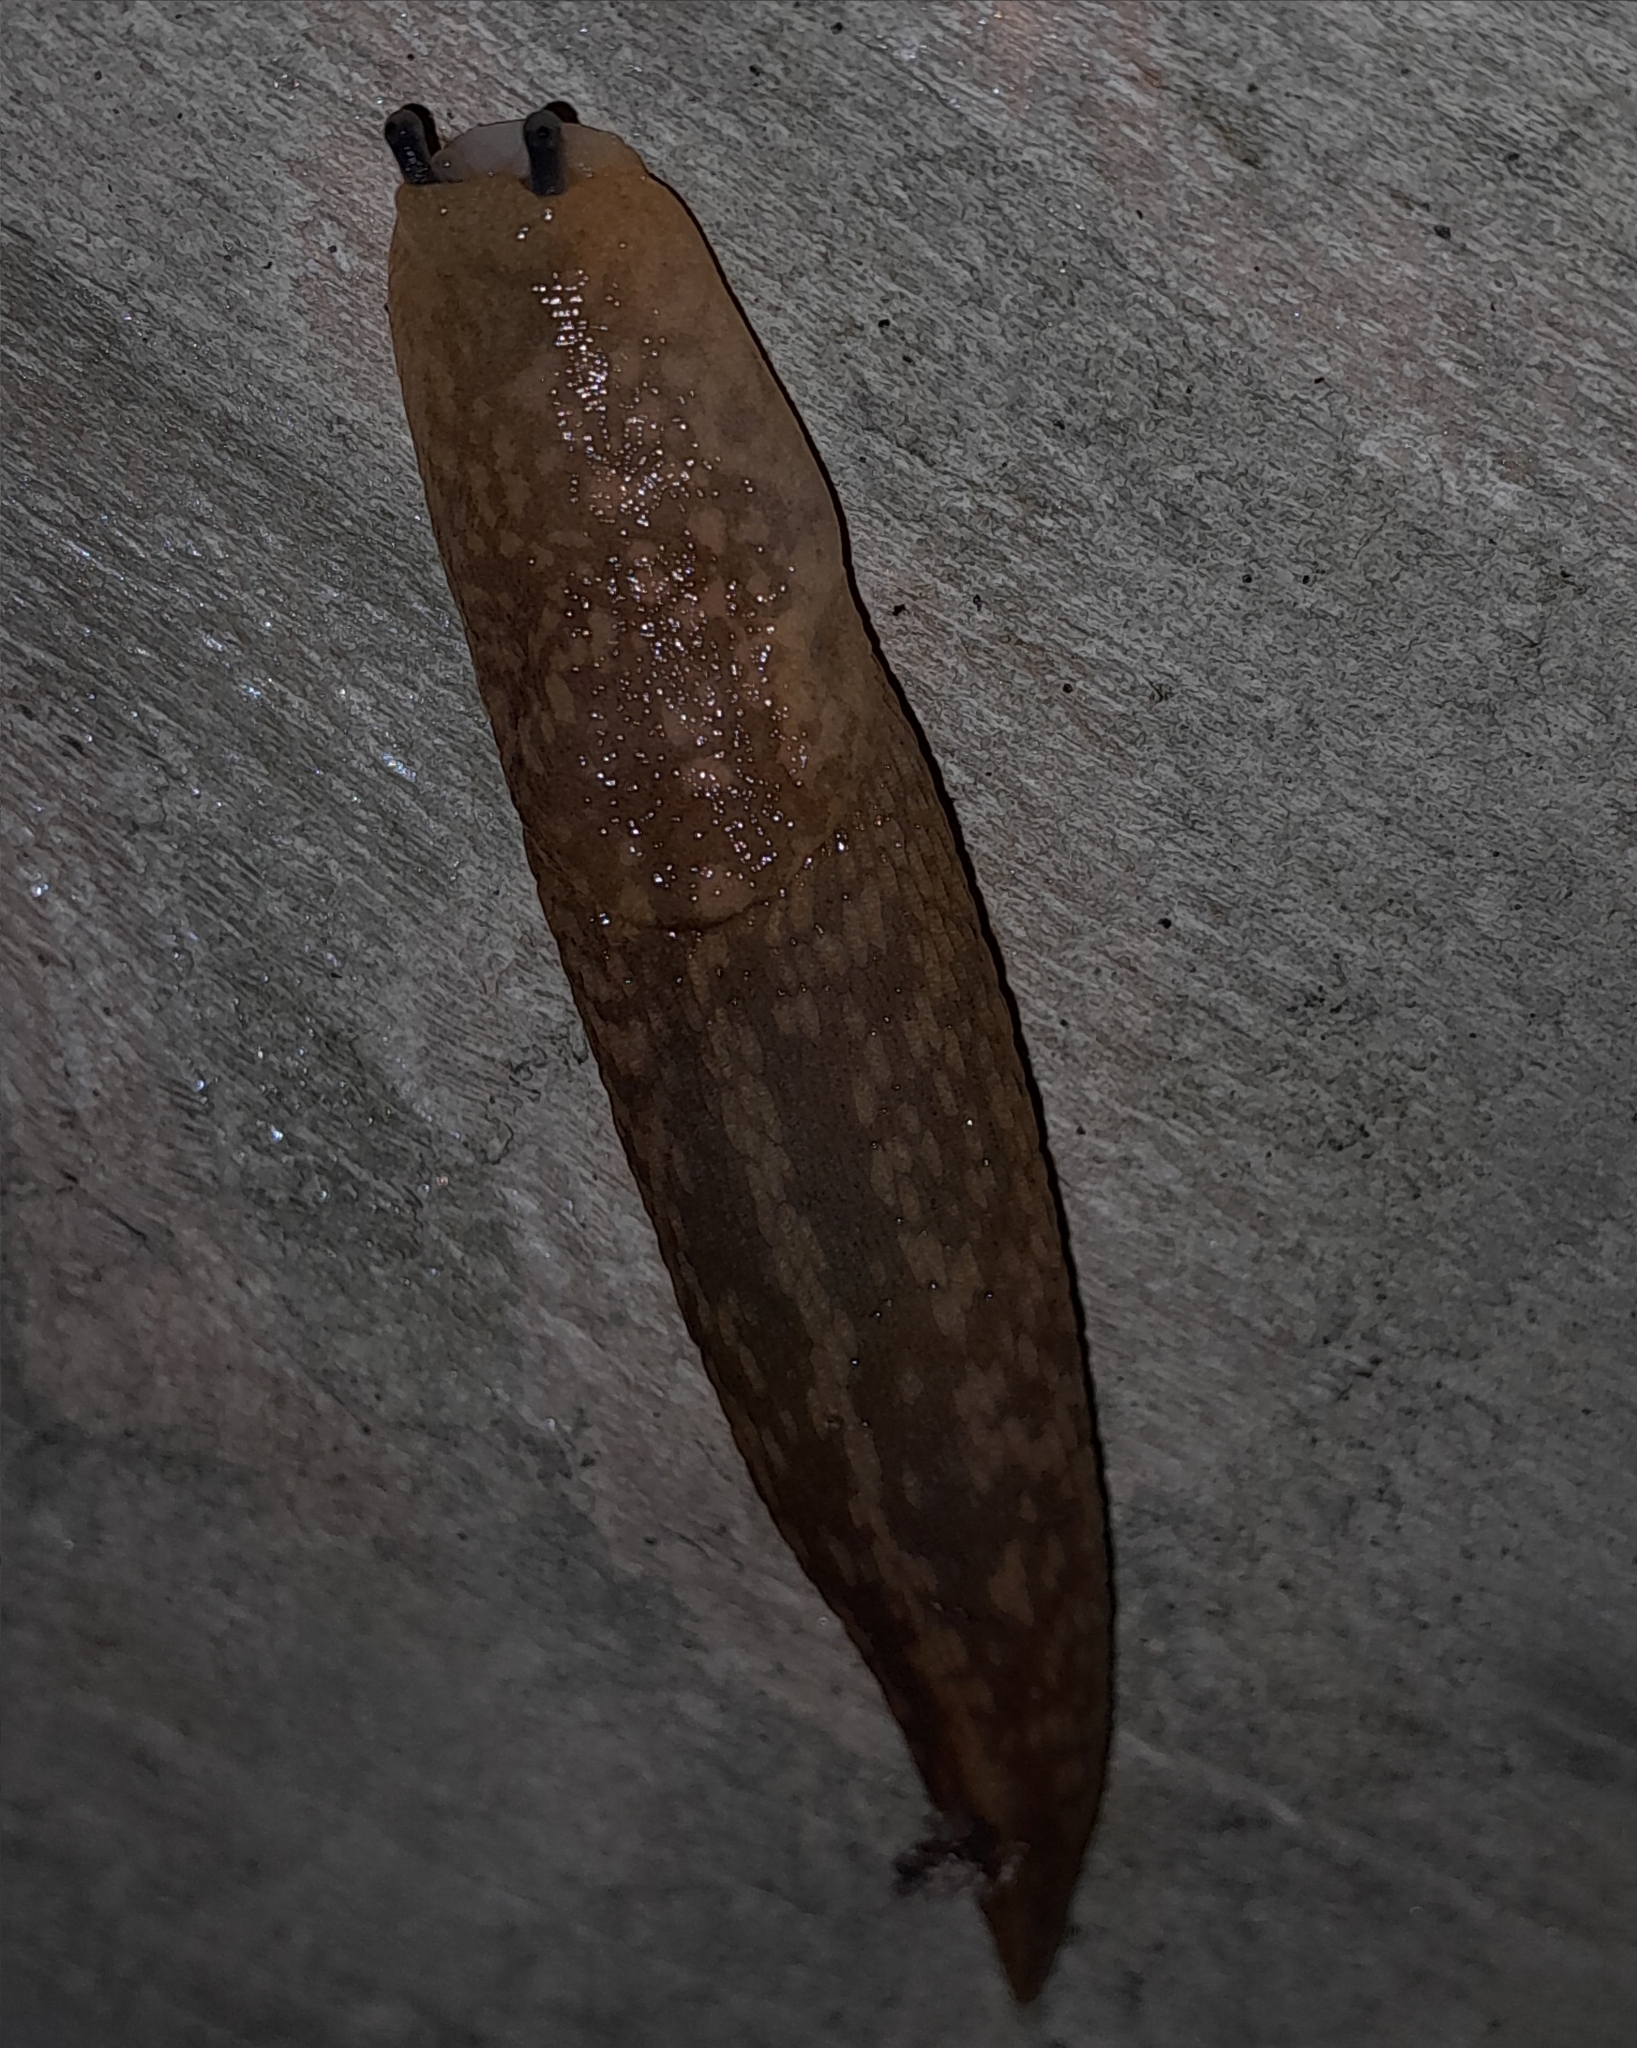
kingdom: Animalia
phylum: Mollusca
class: Gastropoda
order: Stylommatophora
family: Limacidae
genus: Limacus
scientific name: Limacus flavus
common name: Yellow gardenslug
